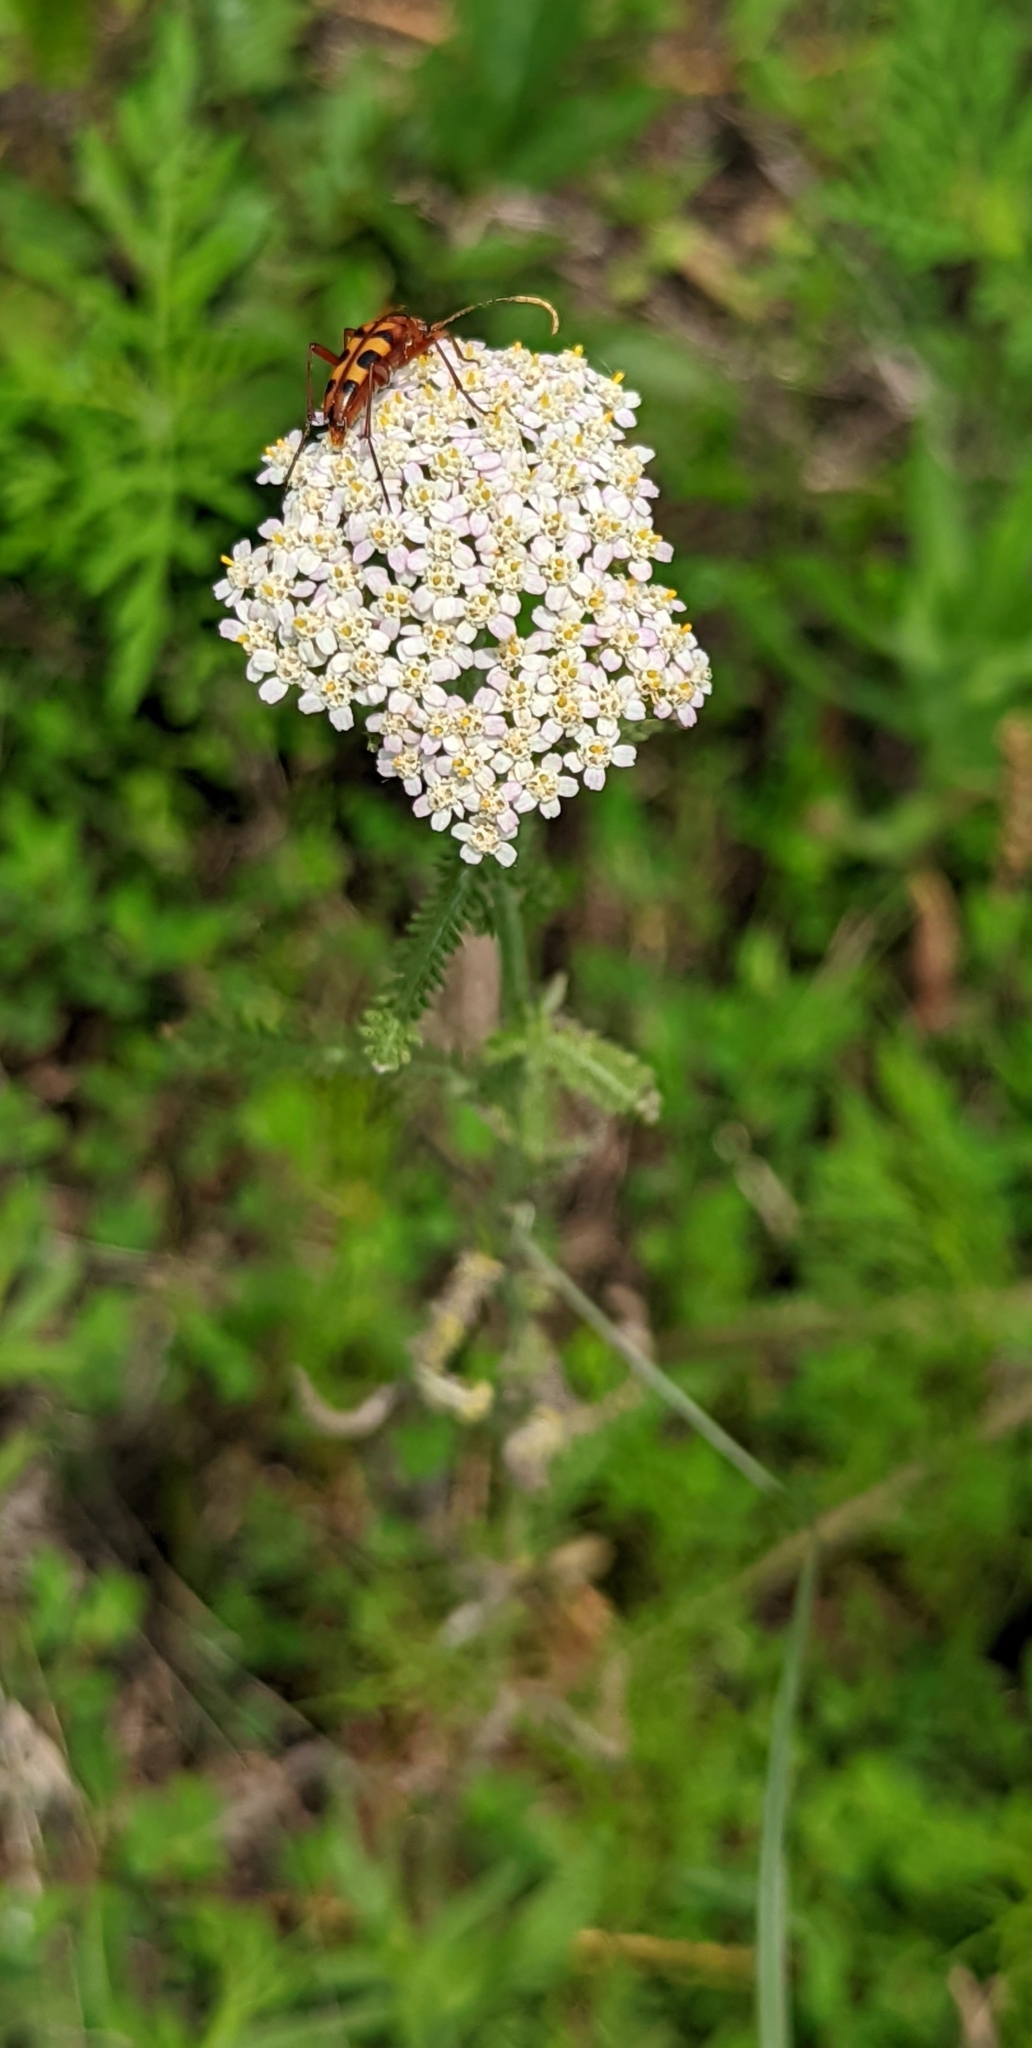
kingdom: Plantae
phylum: Tracheophyta
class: Magnoliopsida
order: Asterales
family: Asteraceae
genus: Achillea
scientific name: Achillea millefolium
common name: Yarrow
